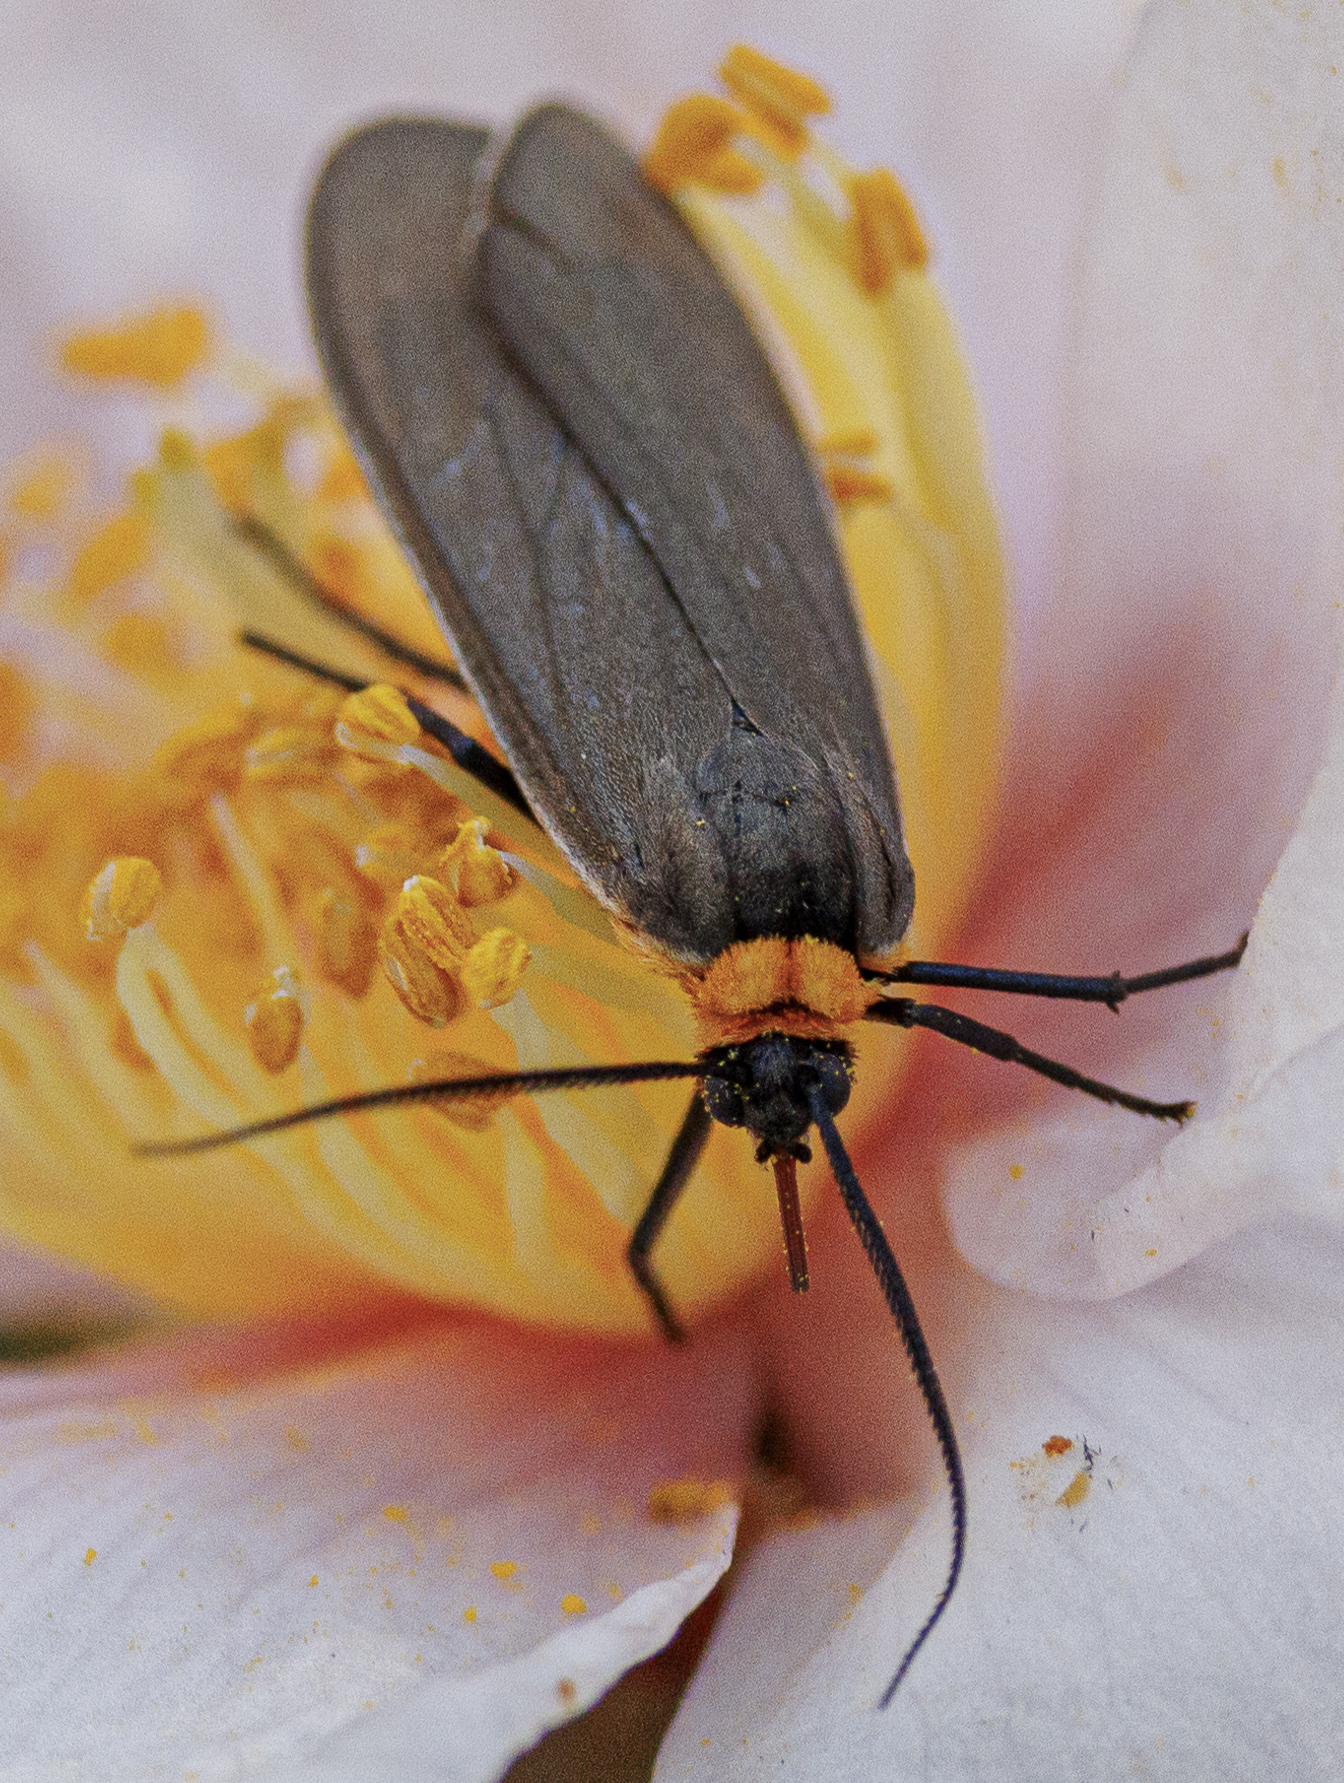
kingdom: Animalia
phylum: Arthropoda
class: Insecta
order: Lepidoptera
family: Erebidae
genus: Cisseps
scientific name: Cisseps fulvicollis
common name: Yellow-collared scape moth
